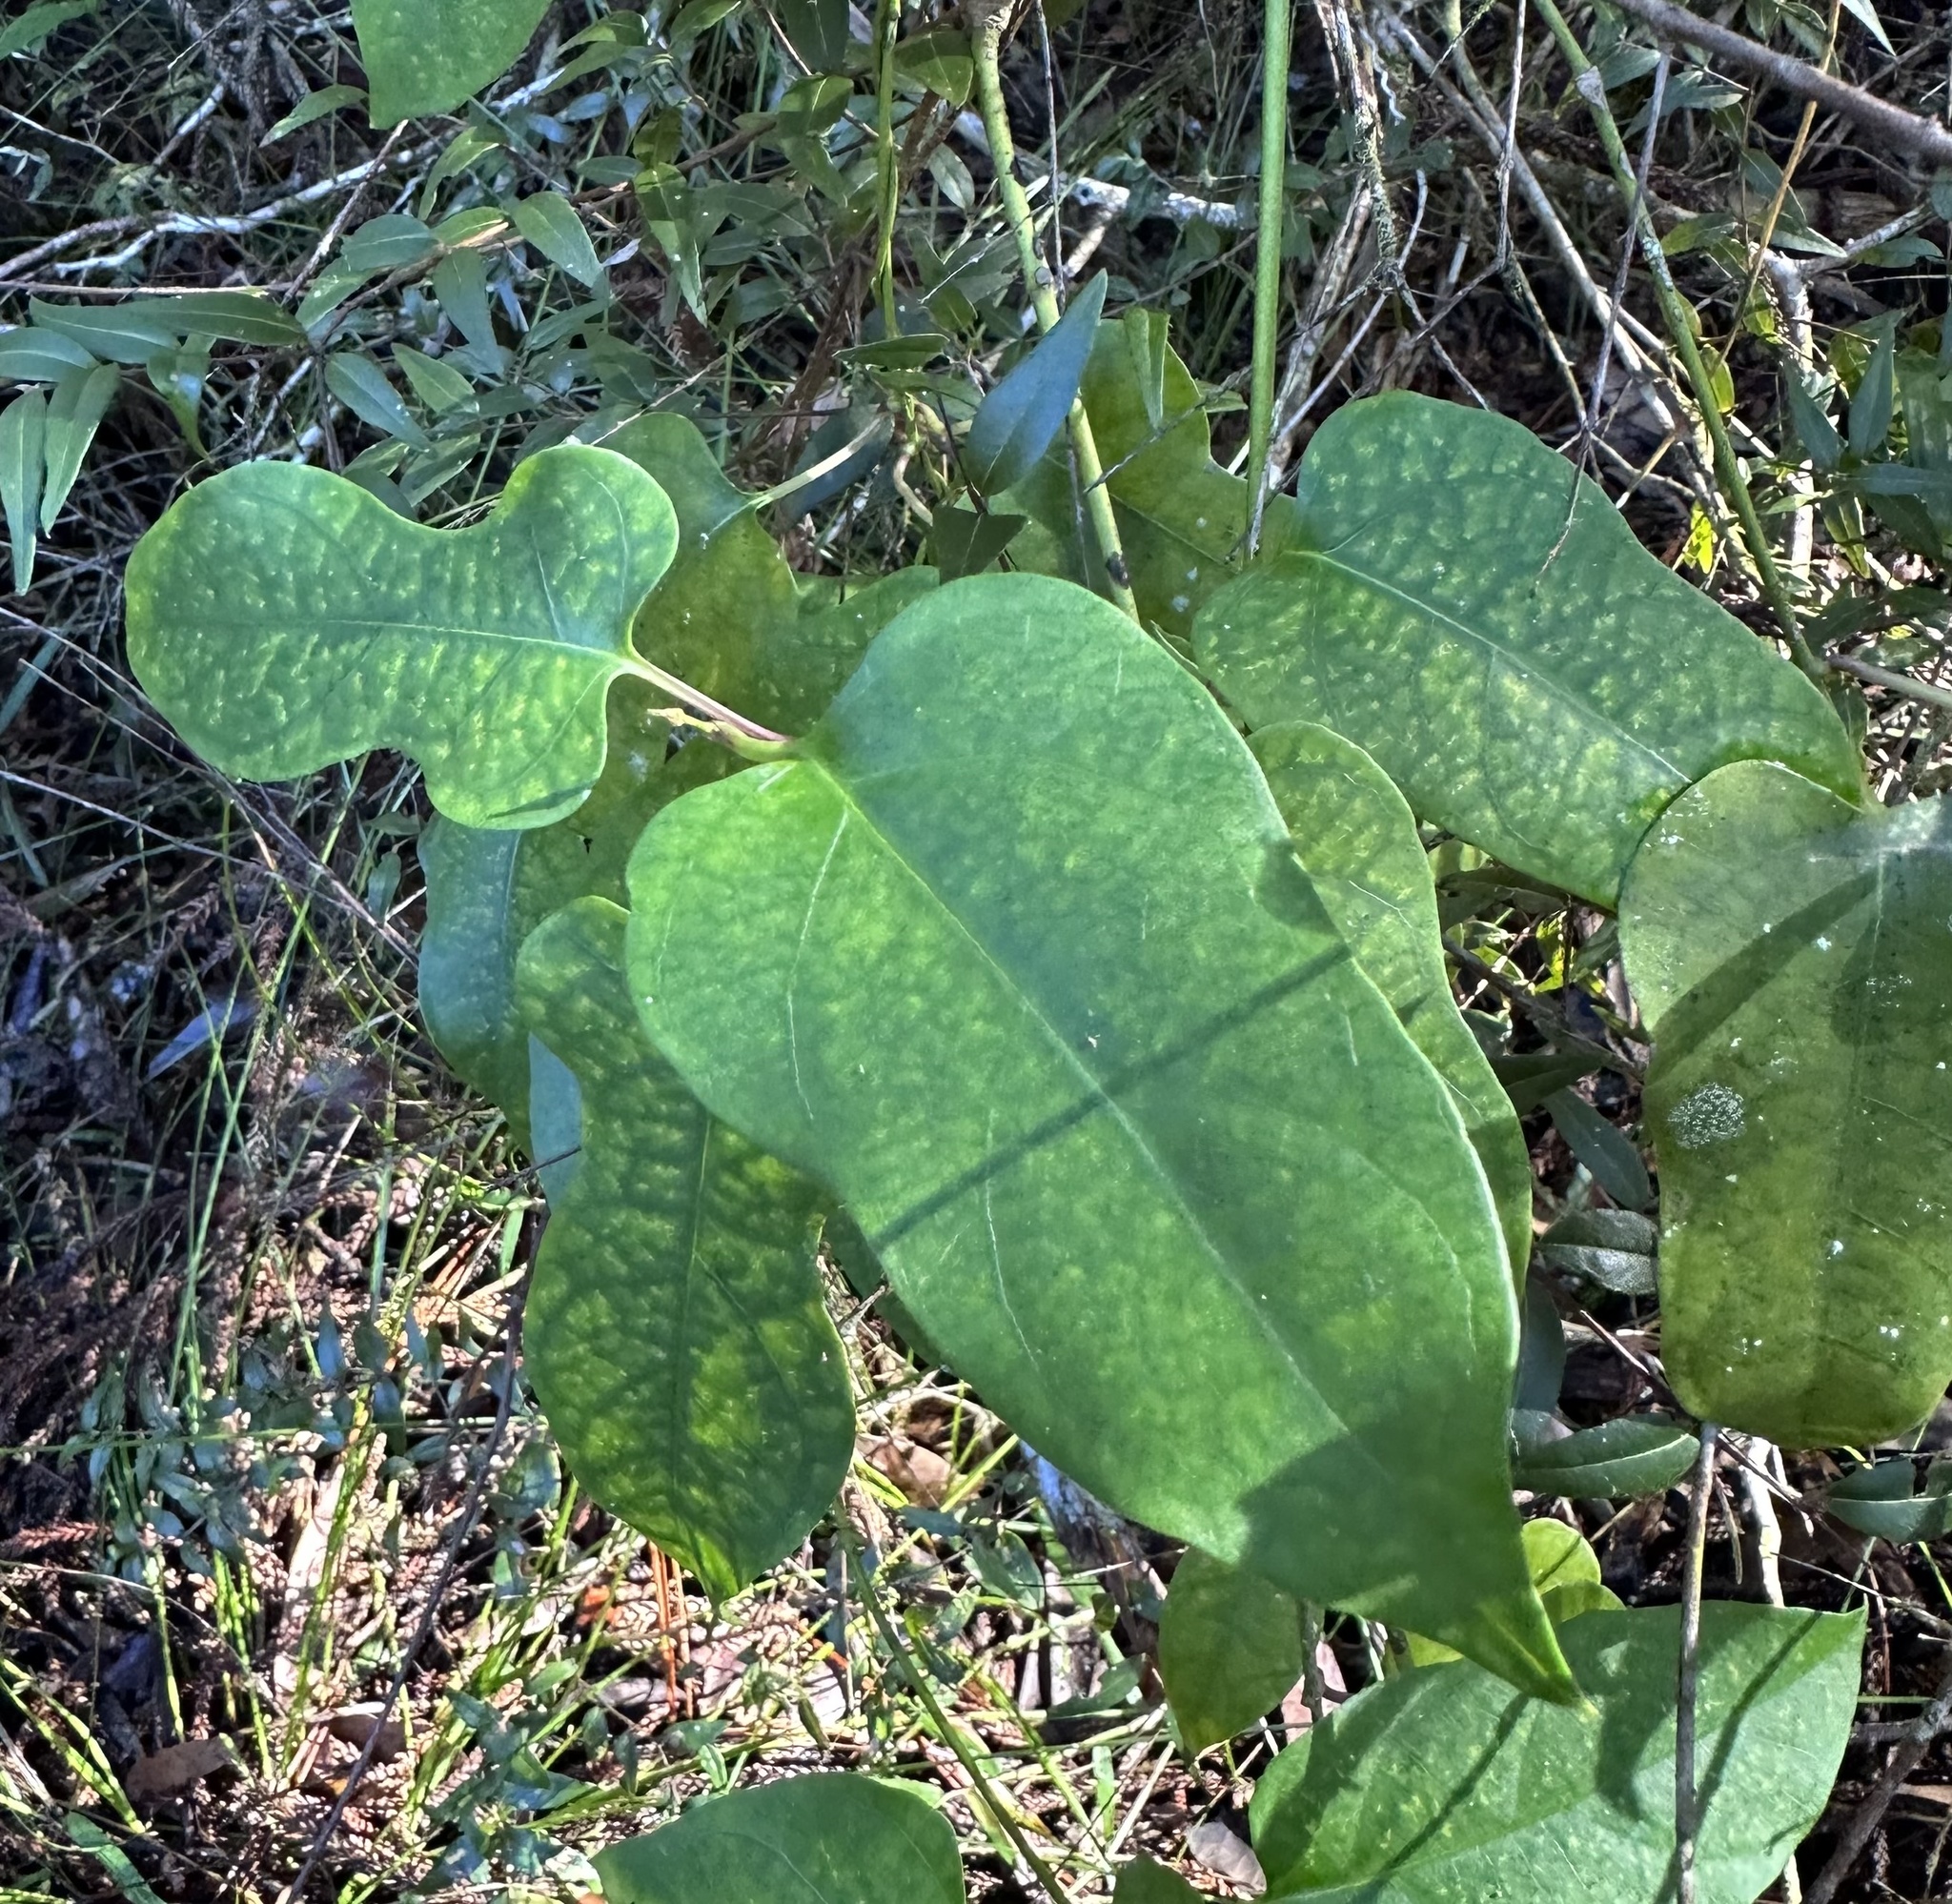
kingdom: Plantae
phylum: Tracheophyta
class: Magnoliopsida
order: Gentianales
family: Apocynaceae
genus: Parsonsia
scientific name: Parsonsia longipetiolata
